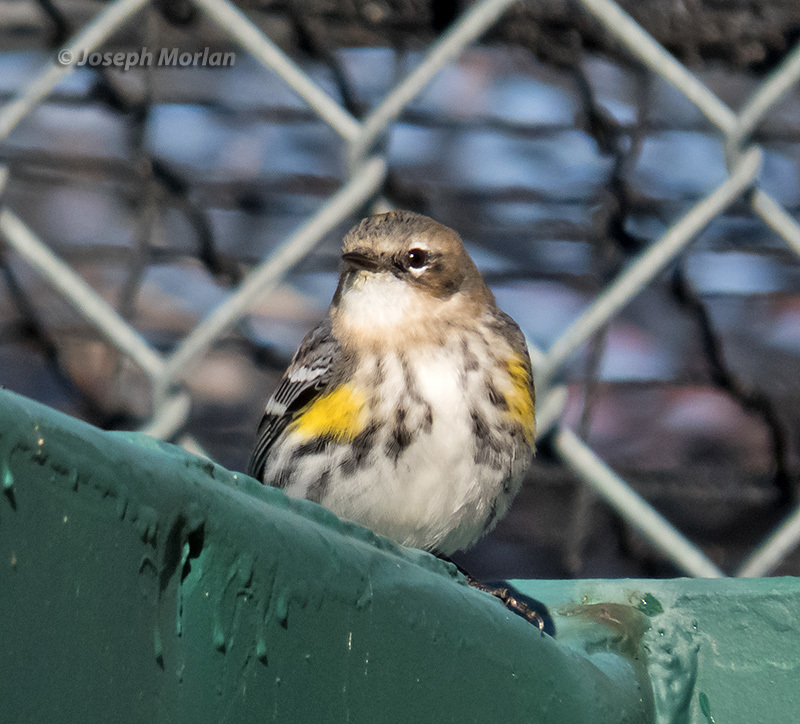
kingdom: Animalia
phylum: Chordata
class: Aves
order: Passeriformes
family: Parulidae
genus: Setophaga
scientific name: Setophaga coronata
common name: Myrtle warbler
